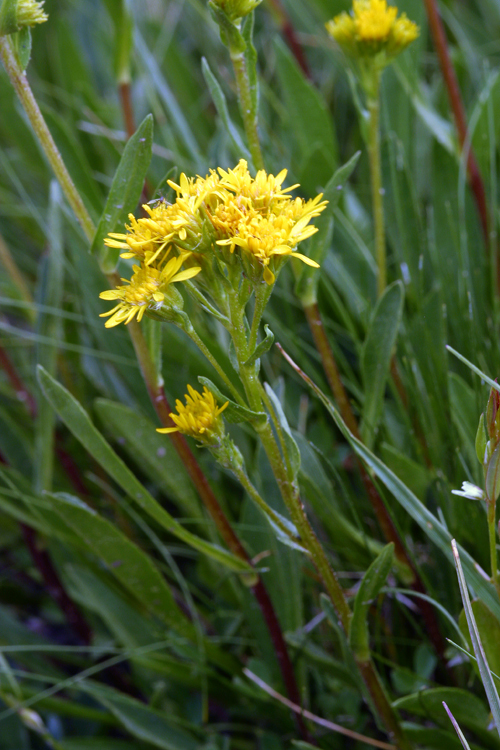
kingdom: Plantae
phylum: Tracheophyta
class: Magnoliopsida
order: Asterales
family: Asteraceae
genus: Solidago
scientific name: Solidago multiradiata
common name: Northern goldenrod
